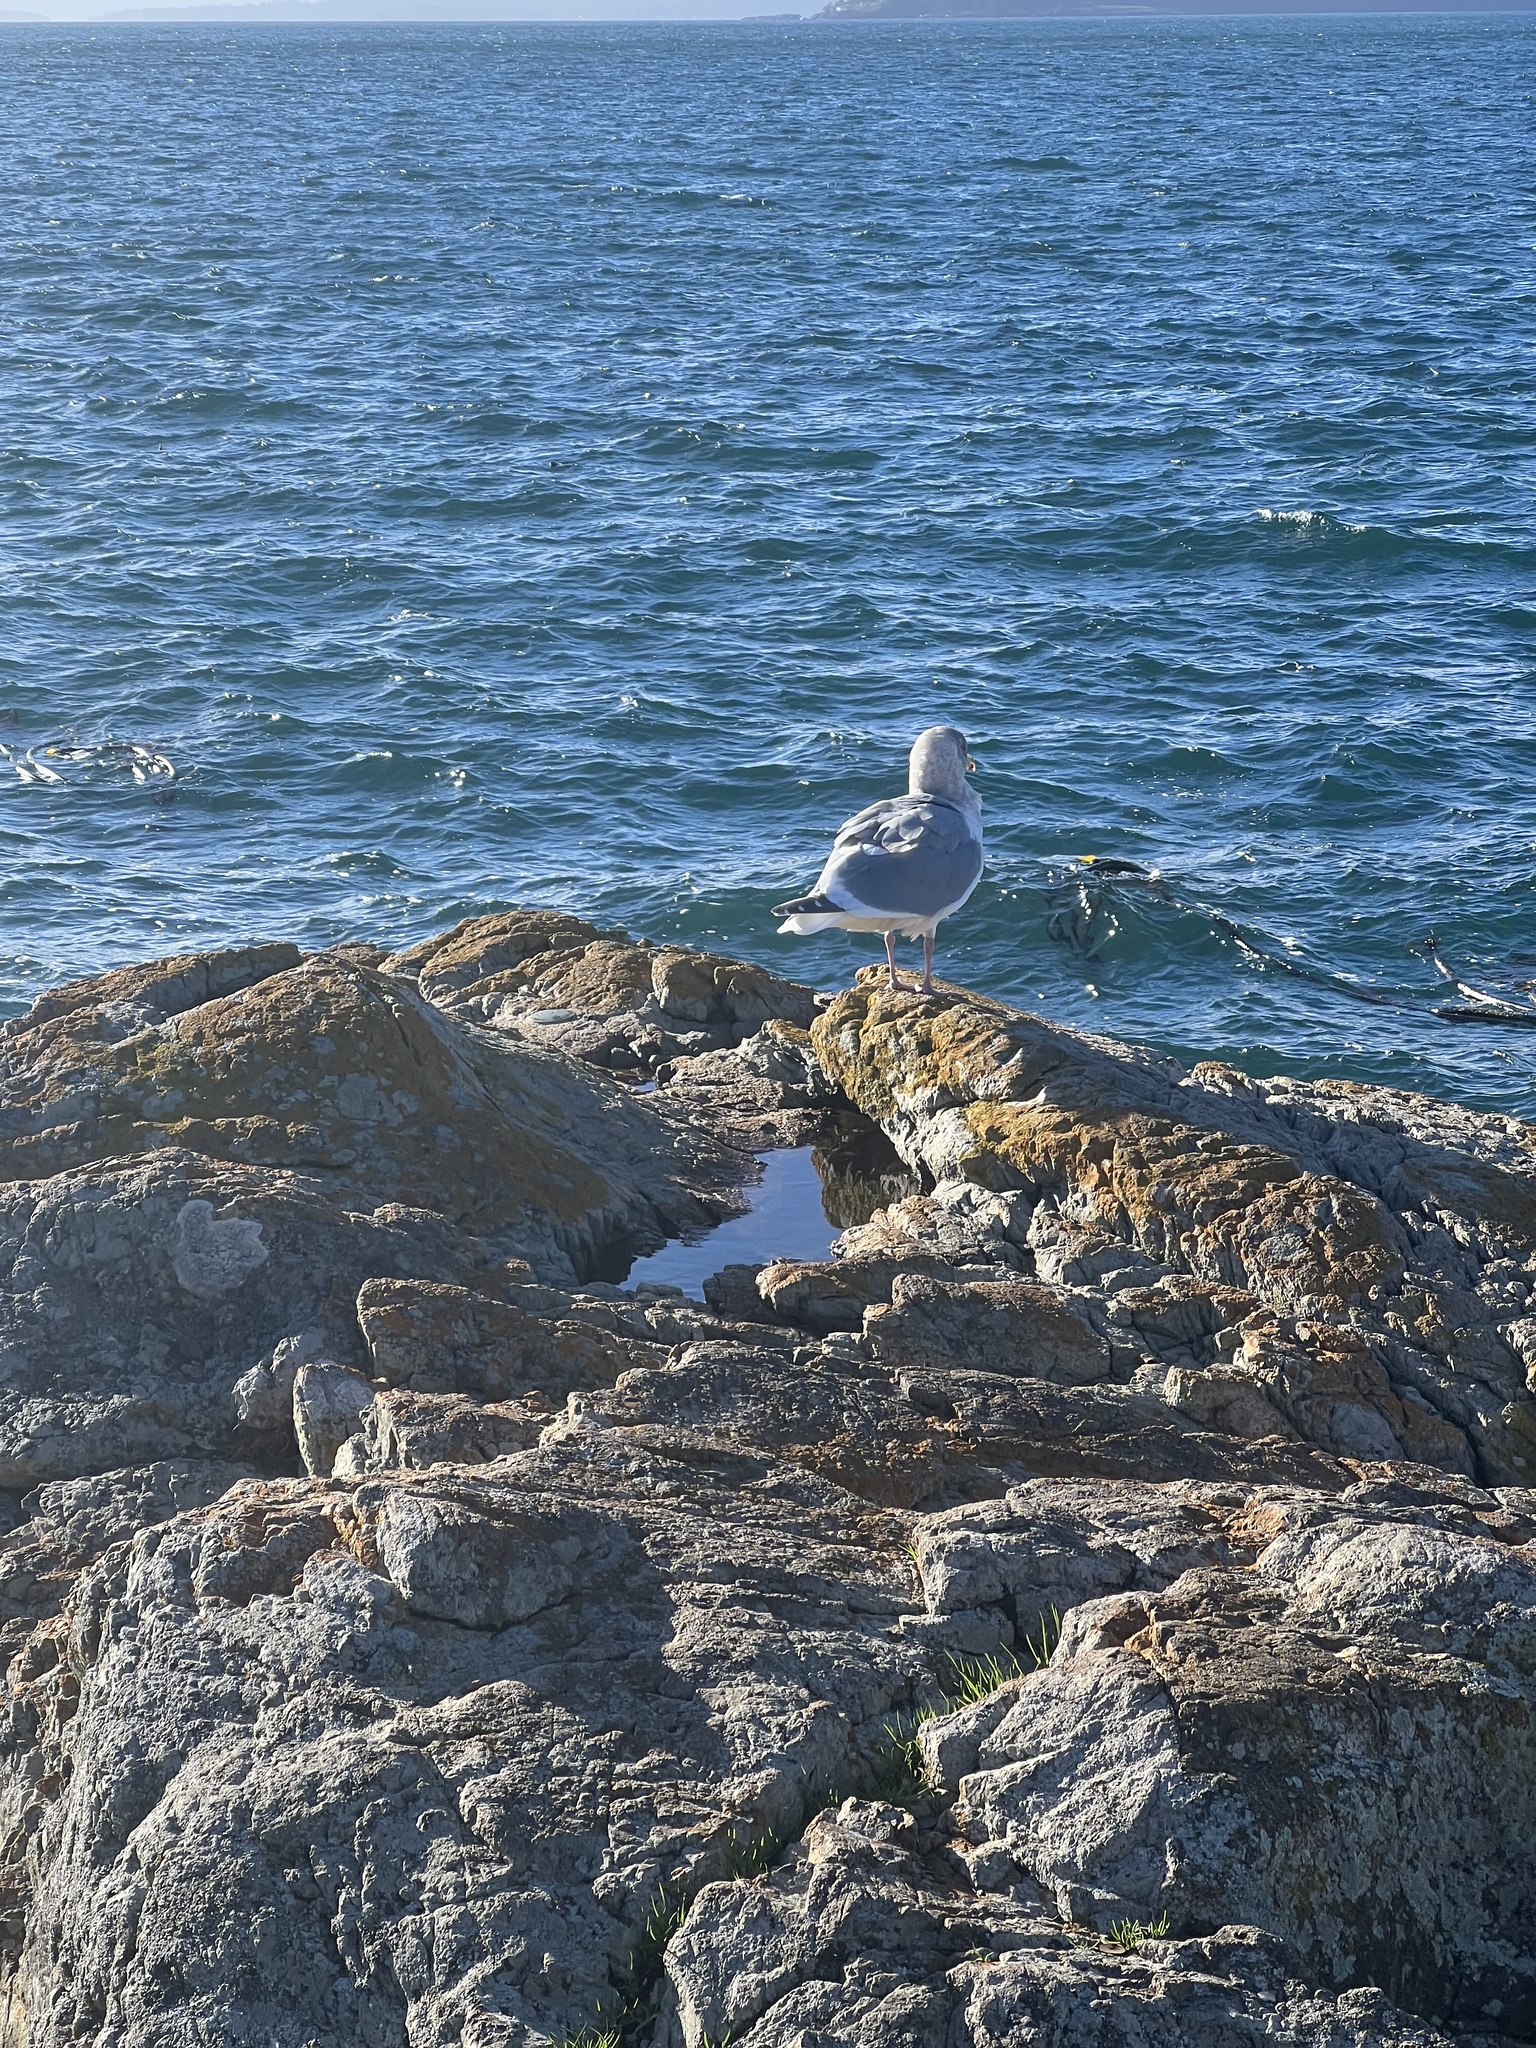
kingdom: Animalia
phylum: Chordata
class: Aves
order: Charadriiformes
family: Laridae
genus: Larus
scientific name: Larus
